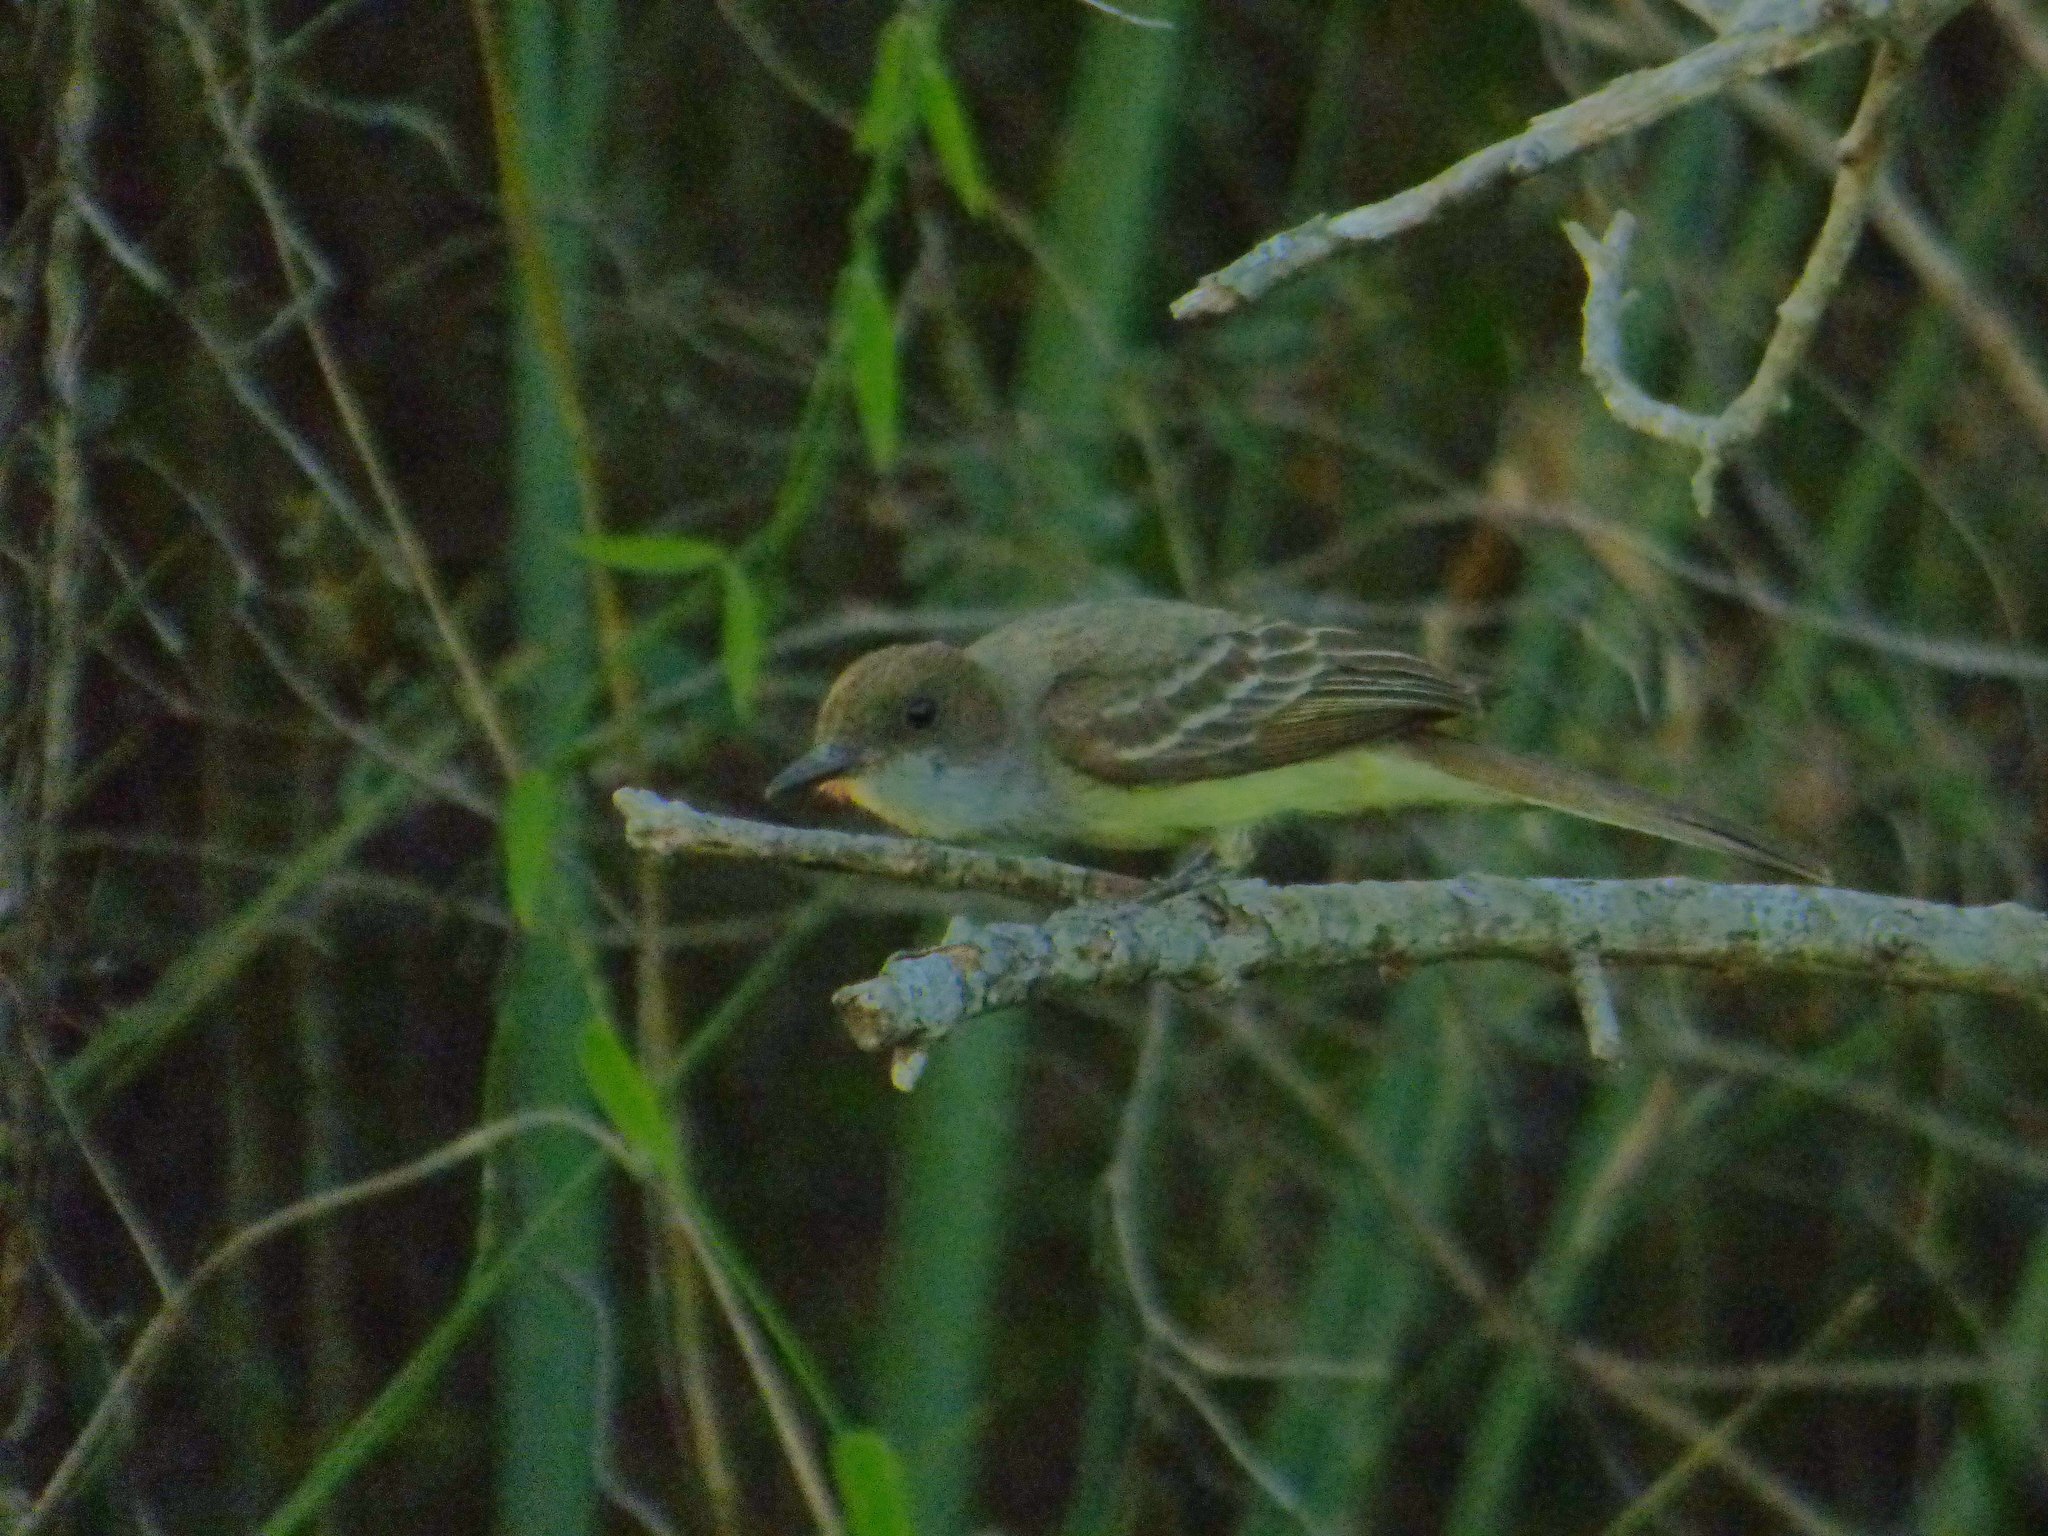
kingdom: Animalia
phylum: Chordata
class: Aves
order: Passeriformes
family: Tyrannidae
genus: Myiarchus
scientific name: Myiarchus tyrannulus
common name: Brown-crested flycatcher
